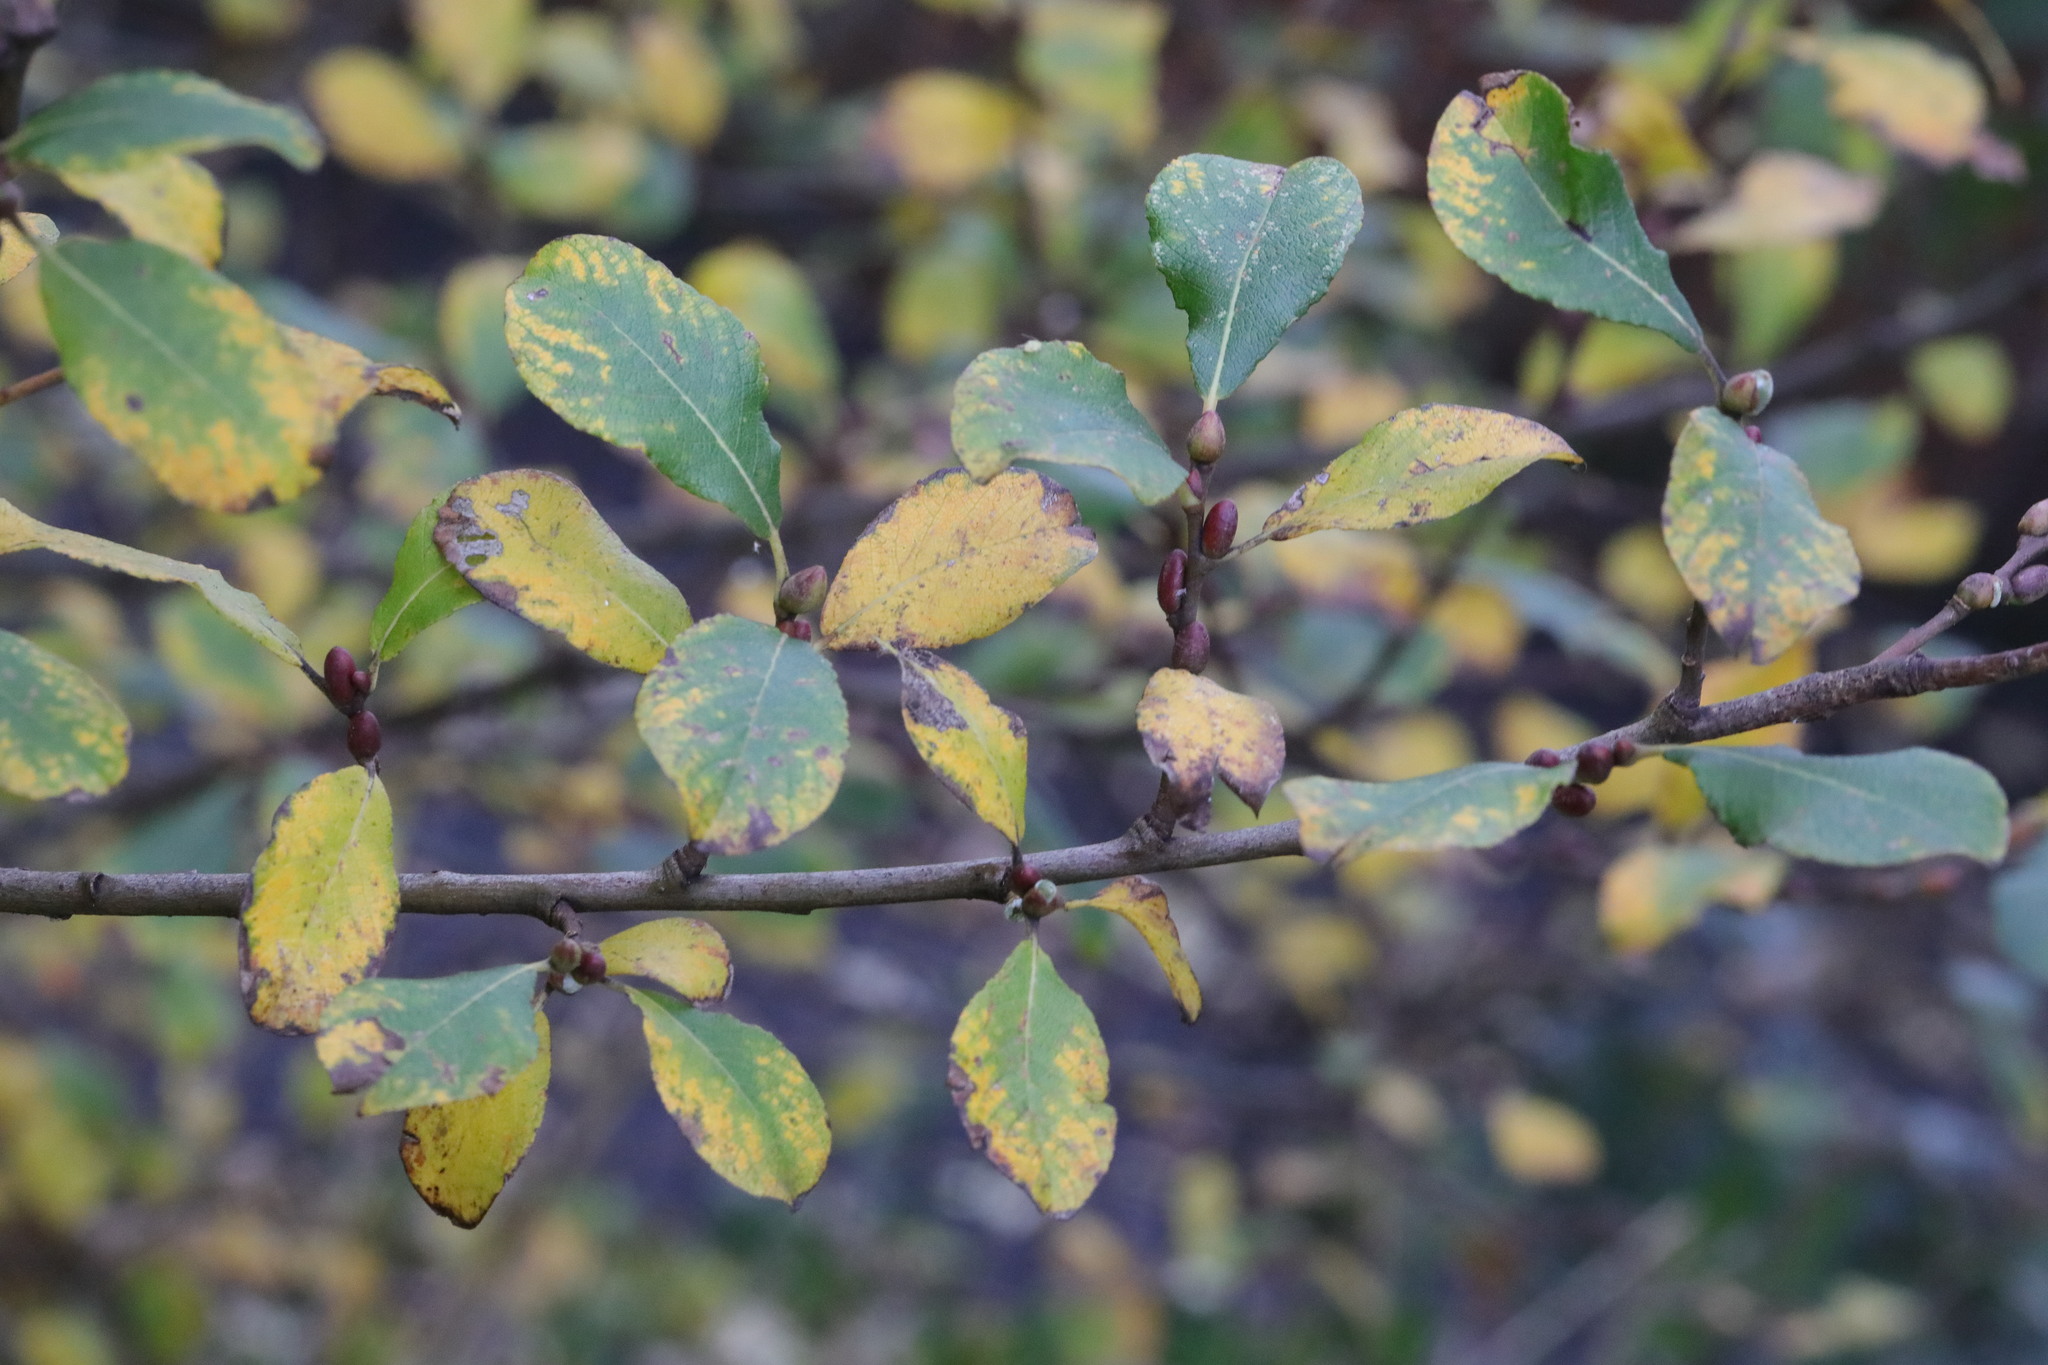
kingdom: Plantae
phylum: Tracheophyta
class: Magnoliopsida
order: Rosales
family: Rosaceae
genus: Prunus
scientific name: Prunus spinosa
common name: Blackthorn
